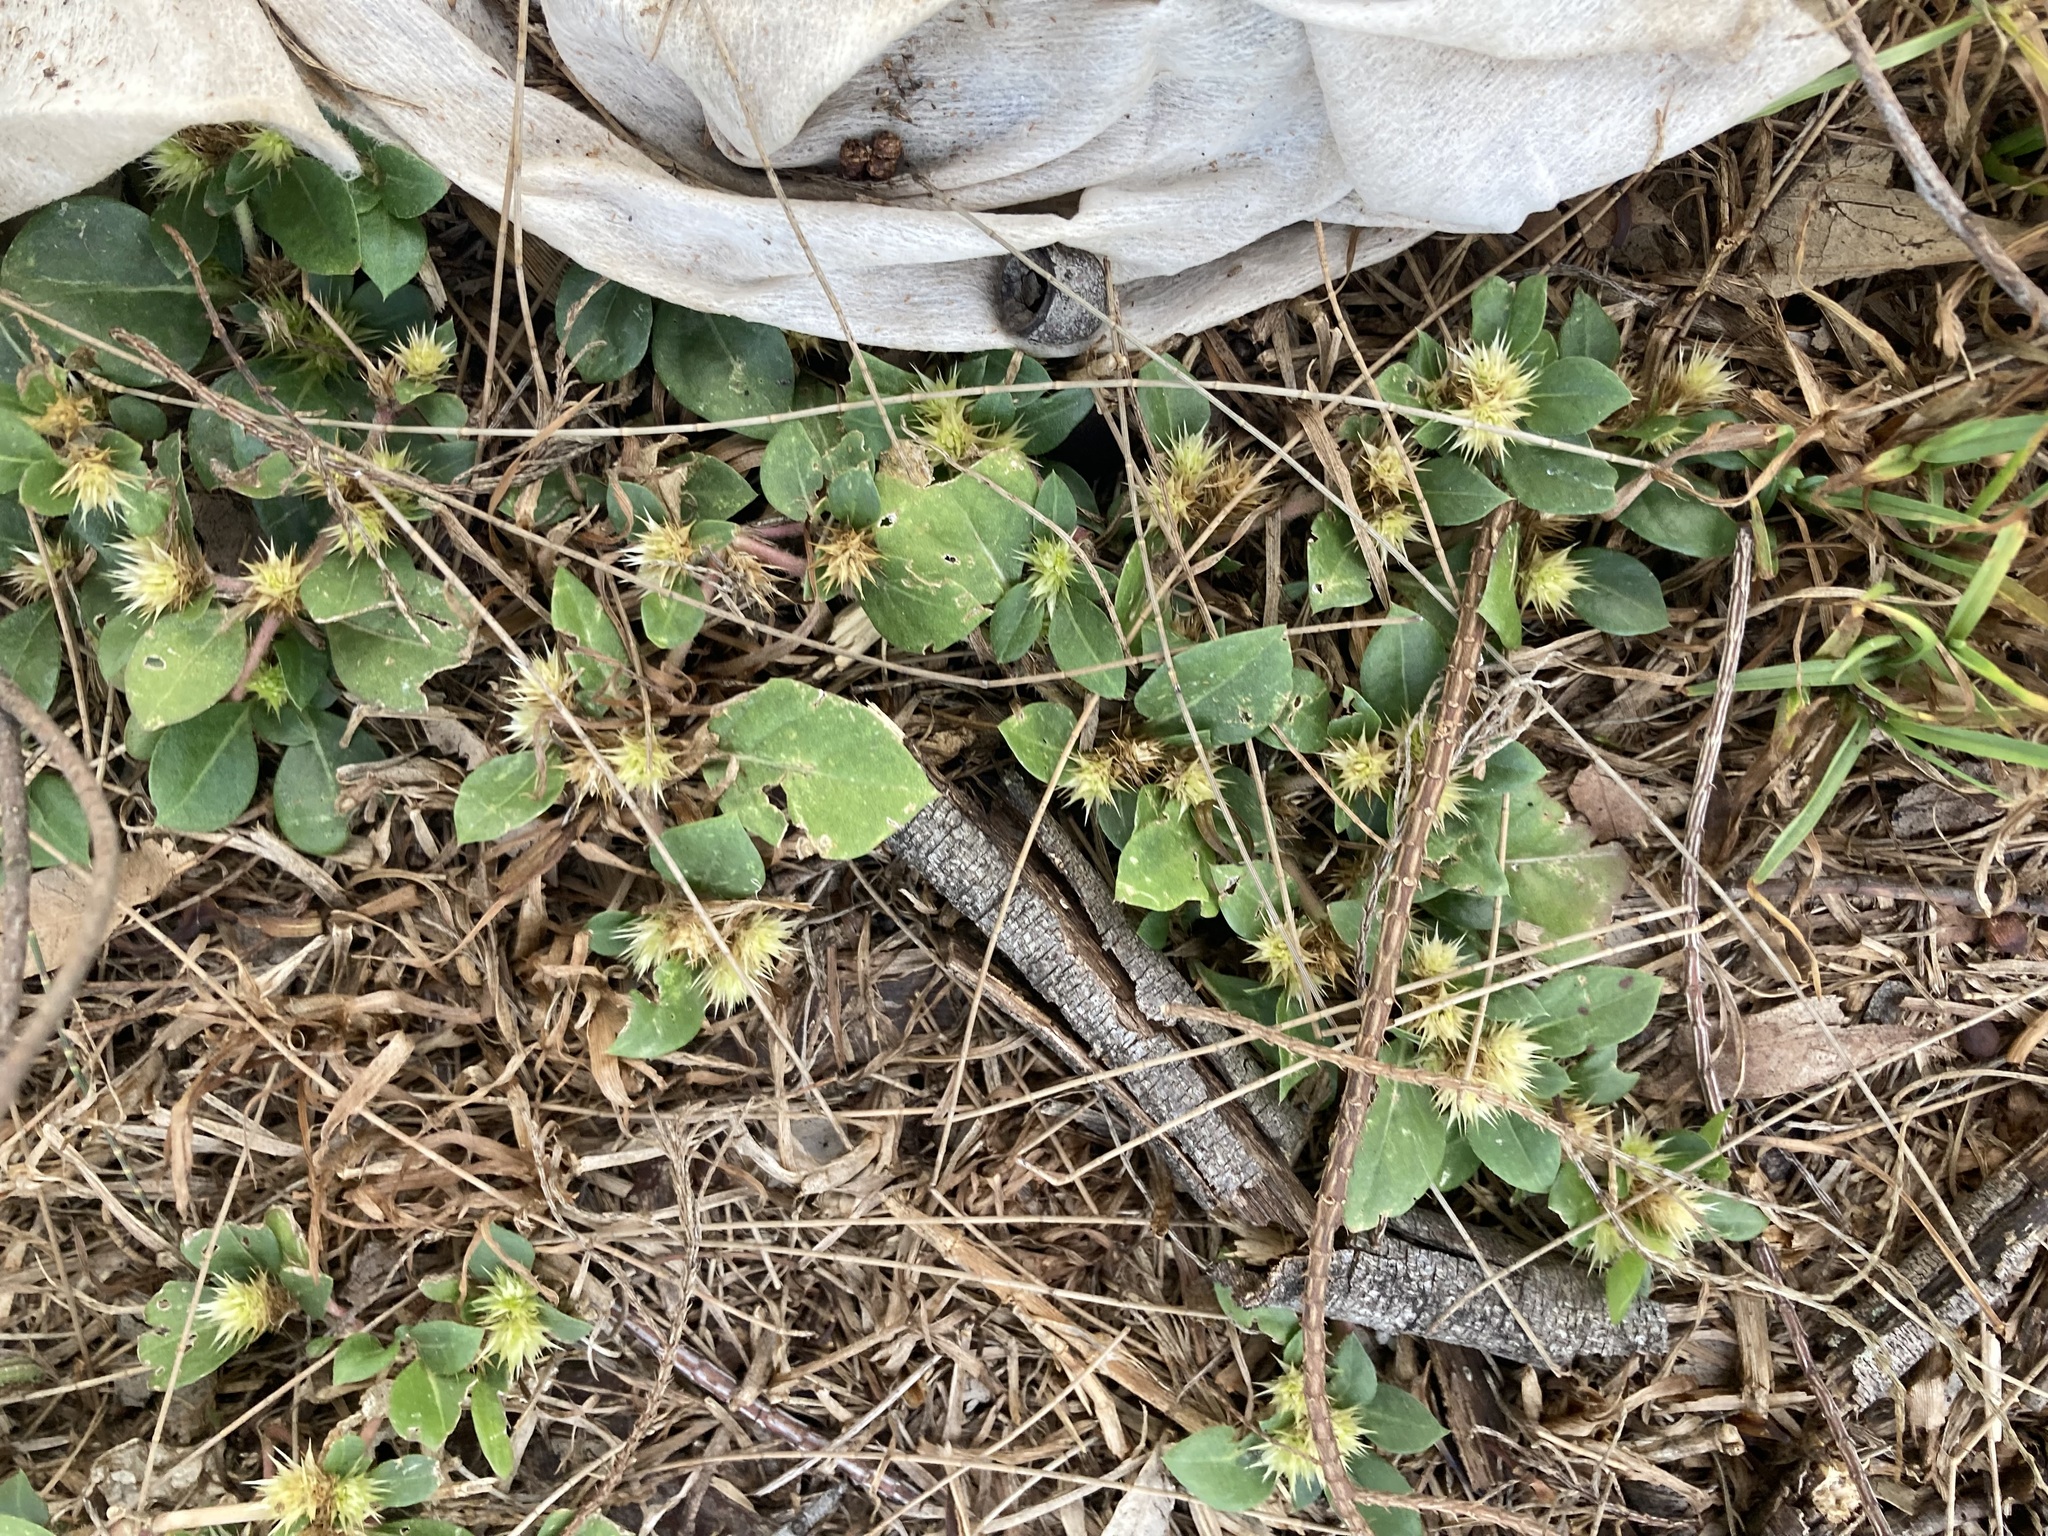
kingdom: Plantae
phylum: Tracheophyta
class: Magnoliopsida
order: Caryophyllales
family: Amaranthaceae
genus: Alternanthera
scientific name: Alternanthera pungens
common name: Khakiweed
